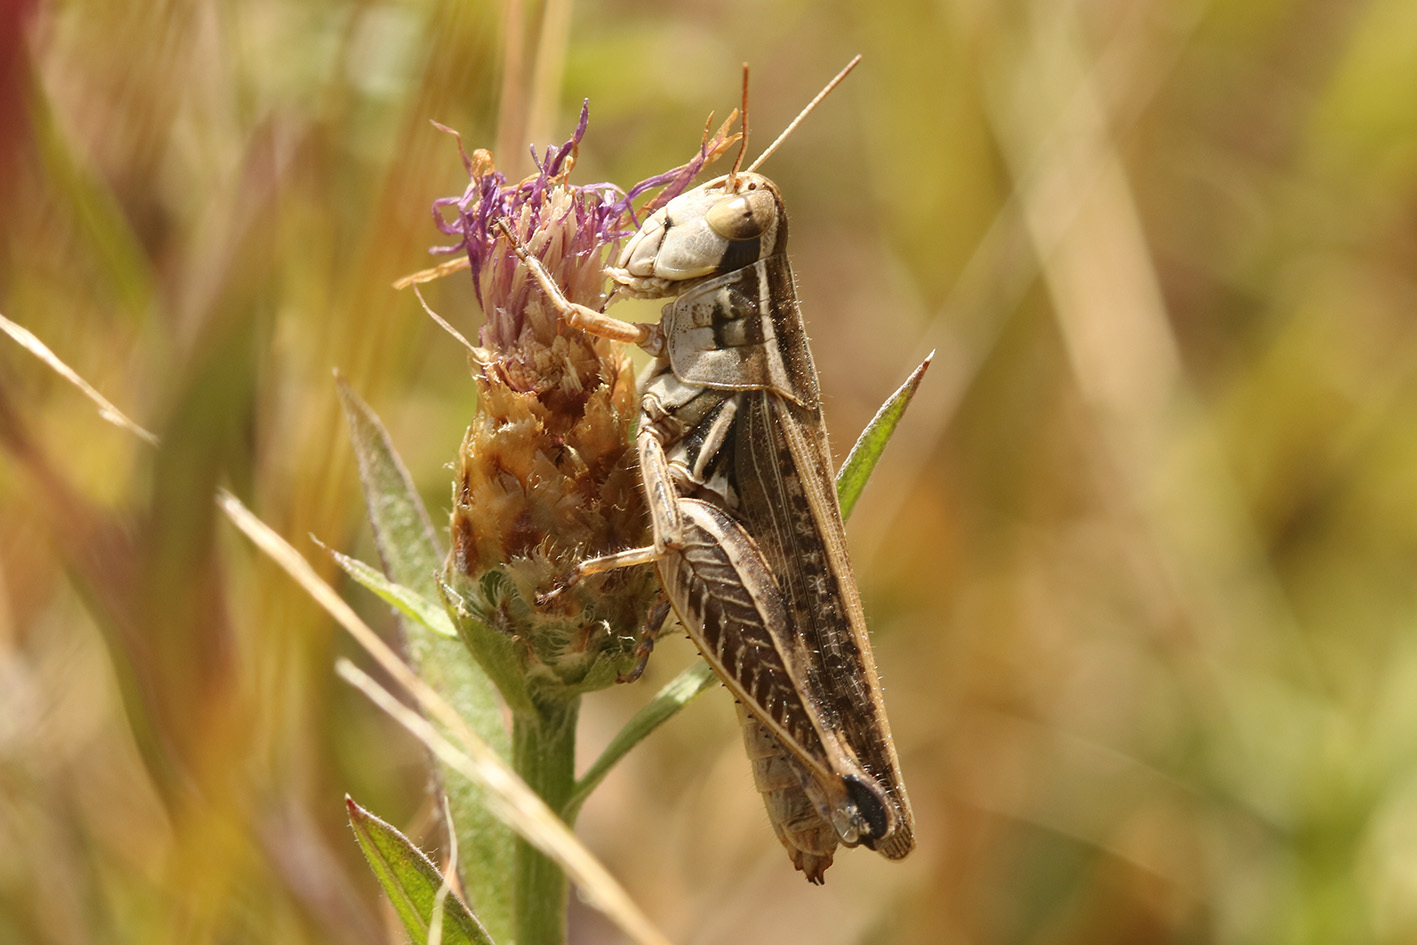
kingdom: Animalia
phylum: Arthropoda
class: Insecta
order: Orthoptera
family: Acrididae
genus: Dichroplus
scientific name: Dichroplus pratensis
